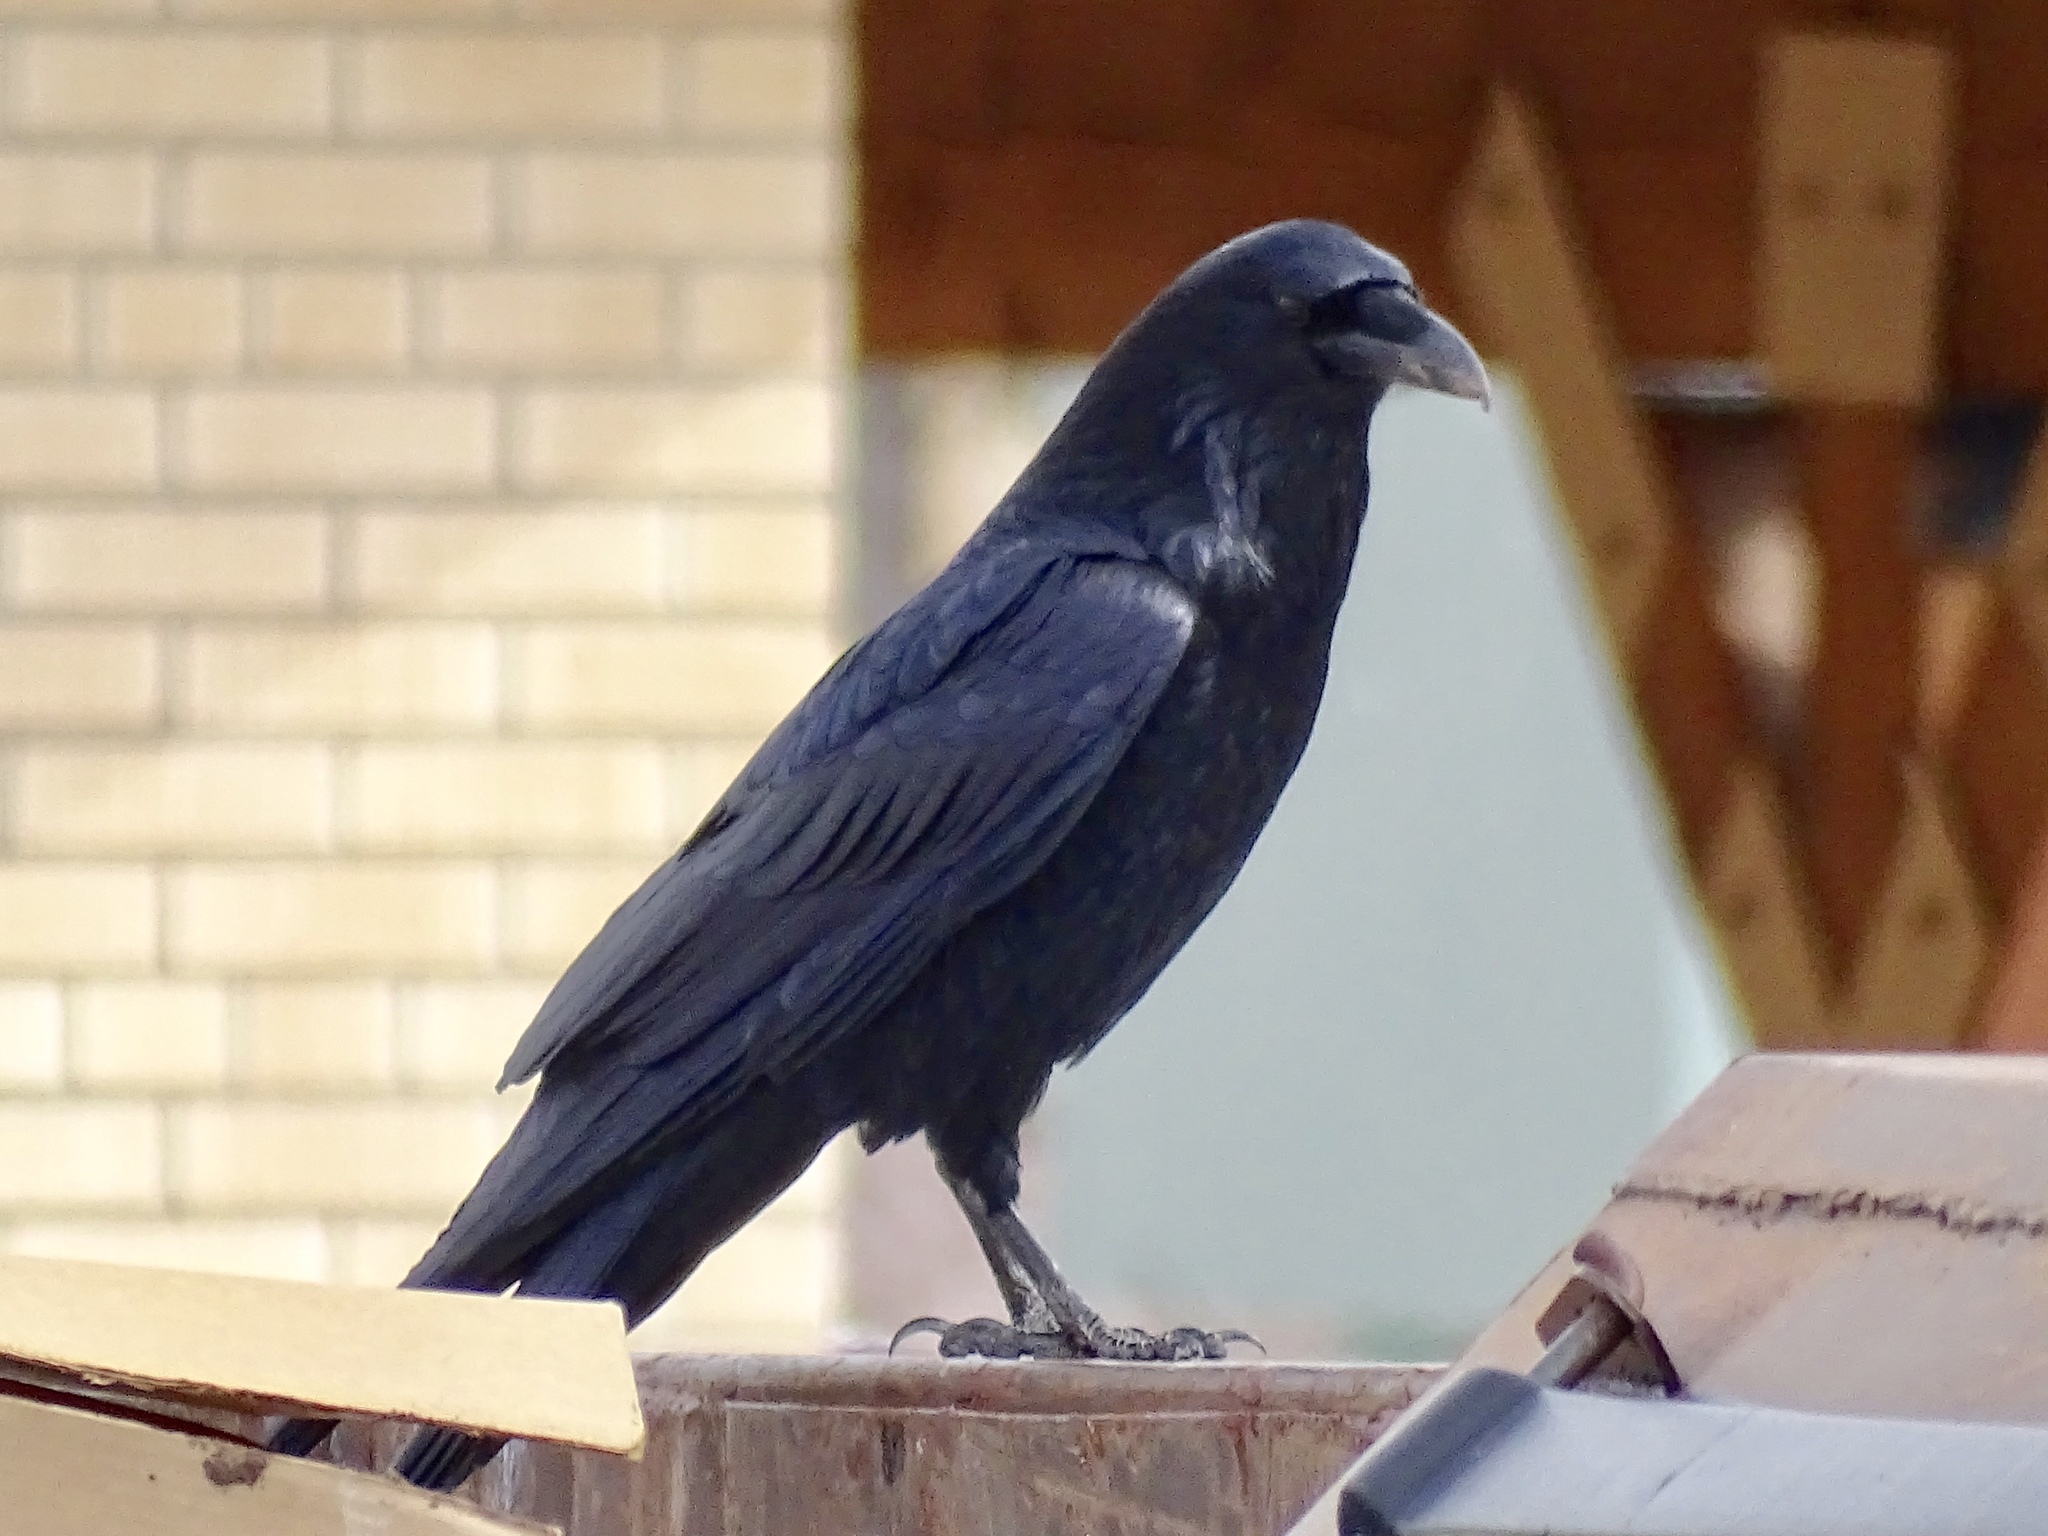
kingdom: Animalia
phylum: Chordata
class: Aves
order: Passeriformes
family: Corvidae
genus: Corvus
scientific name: Corvus corax
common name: Common raven
